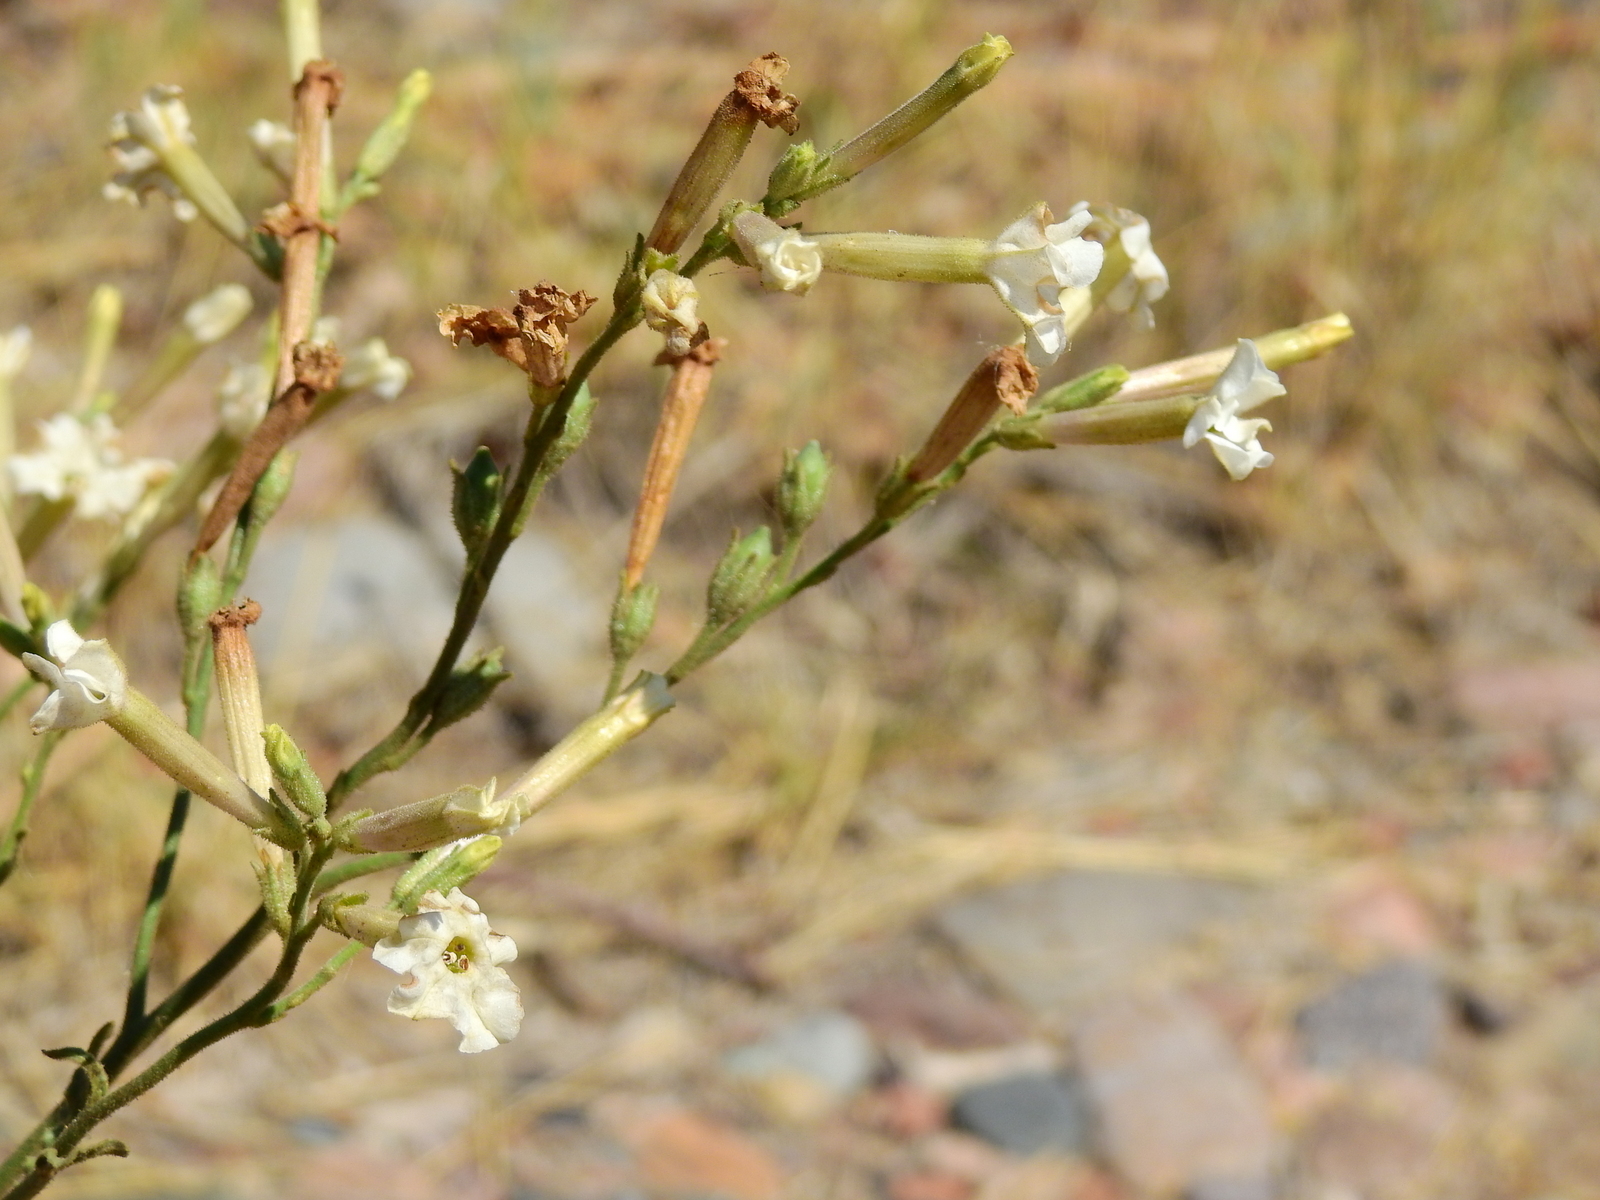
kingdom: Plantae
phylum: Tracheophyta
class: Magnoliopsida
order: Solanales
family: Solanaceae
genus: Nicotiana
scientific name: Nicotiana noctiflora
